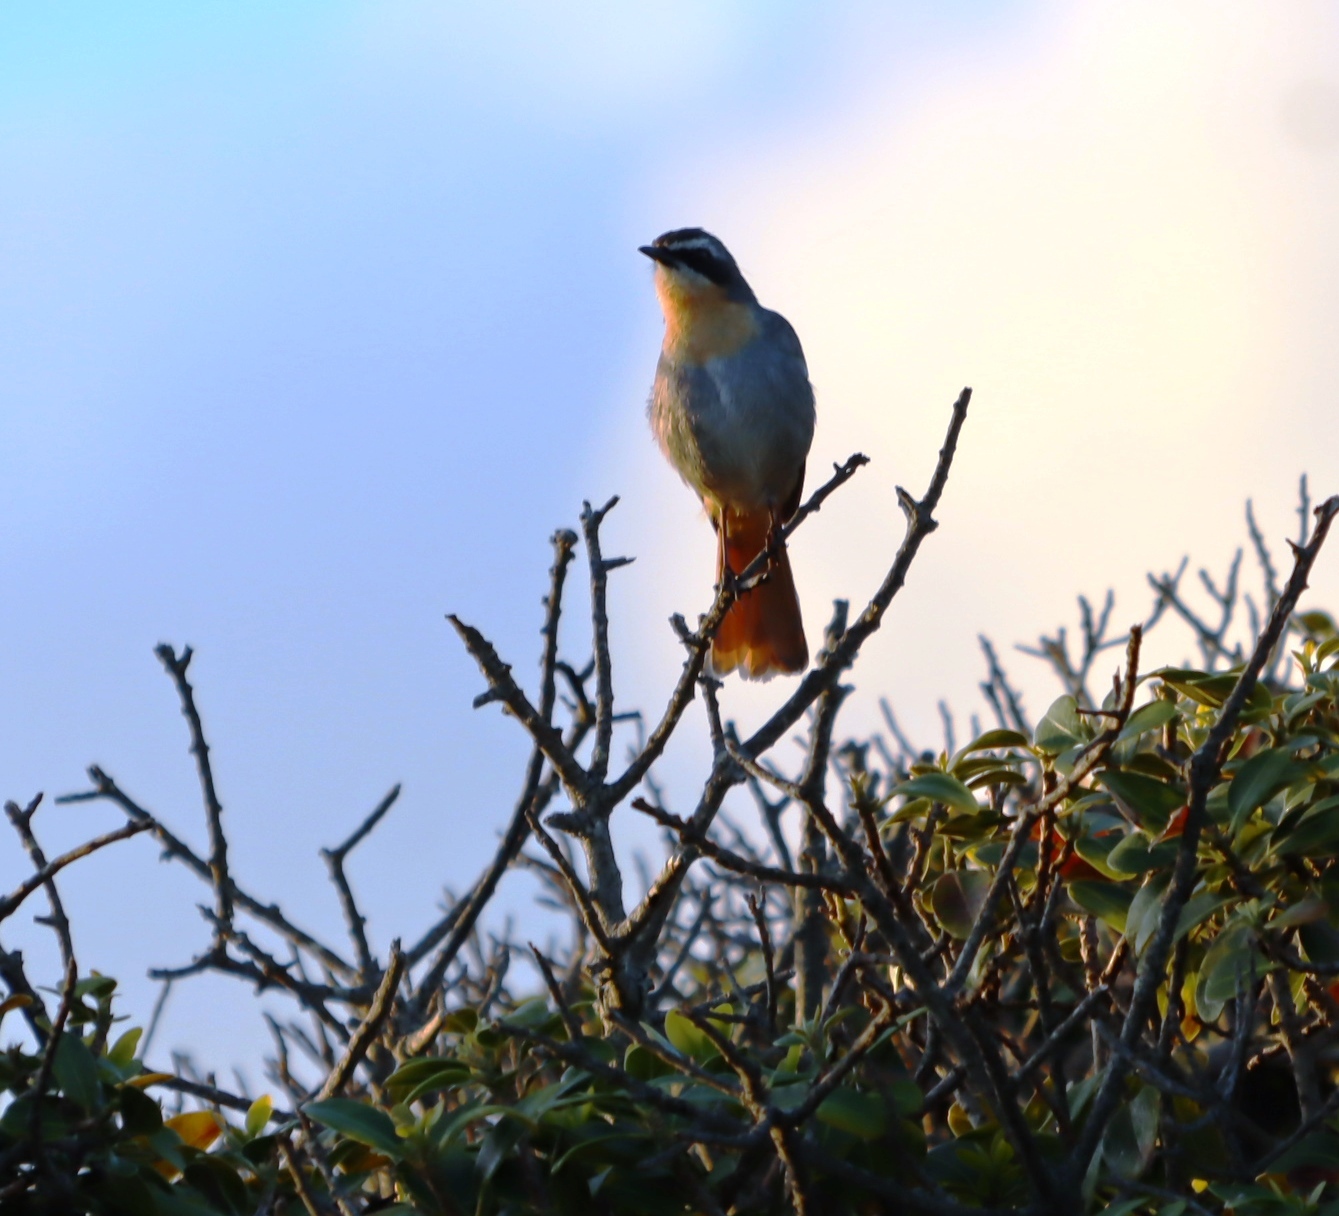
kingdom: Animalia
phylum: Chordata
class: Aves
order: Passeriformes
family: Muscicapidae
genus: Cossypha
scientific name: Cossypha caffra
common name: Cape robin-chat
